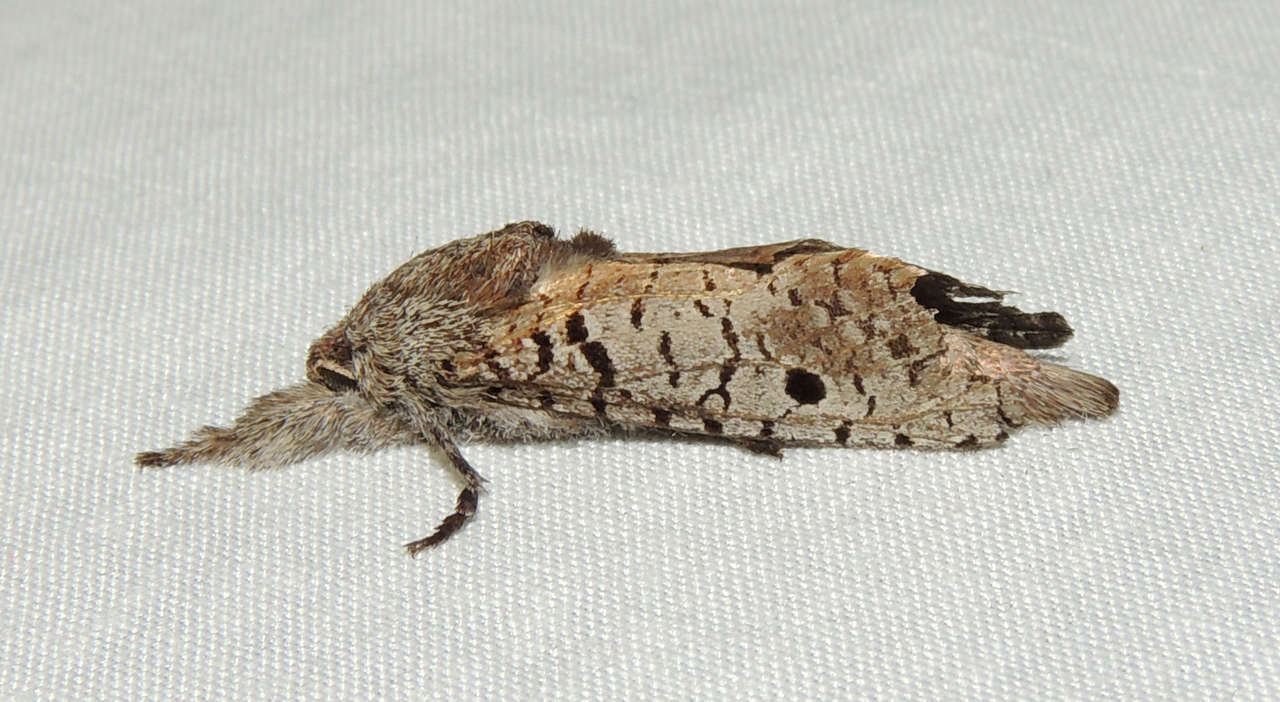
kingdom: Animalia
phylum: Arthropoda
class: Insecta
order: Lepidoptera
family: Cossidae
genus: Sympycnodes
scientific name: Sympycnodes
